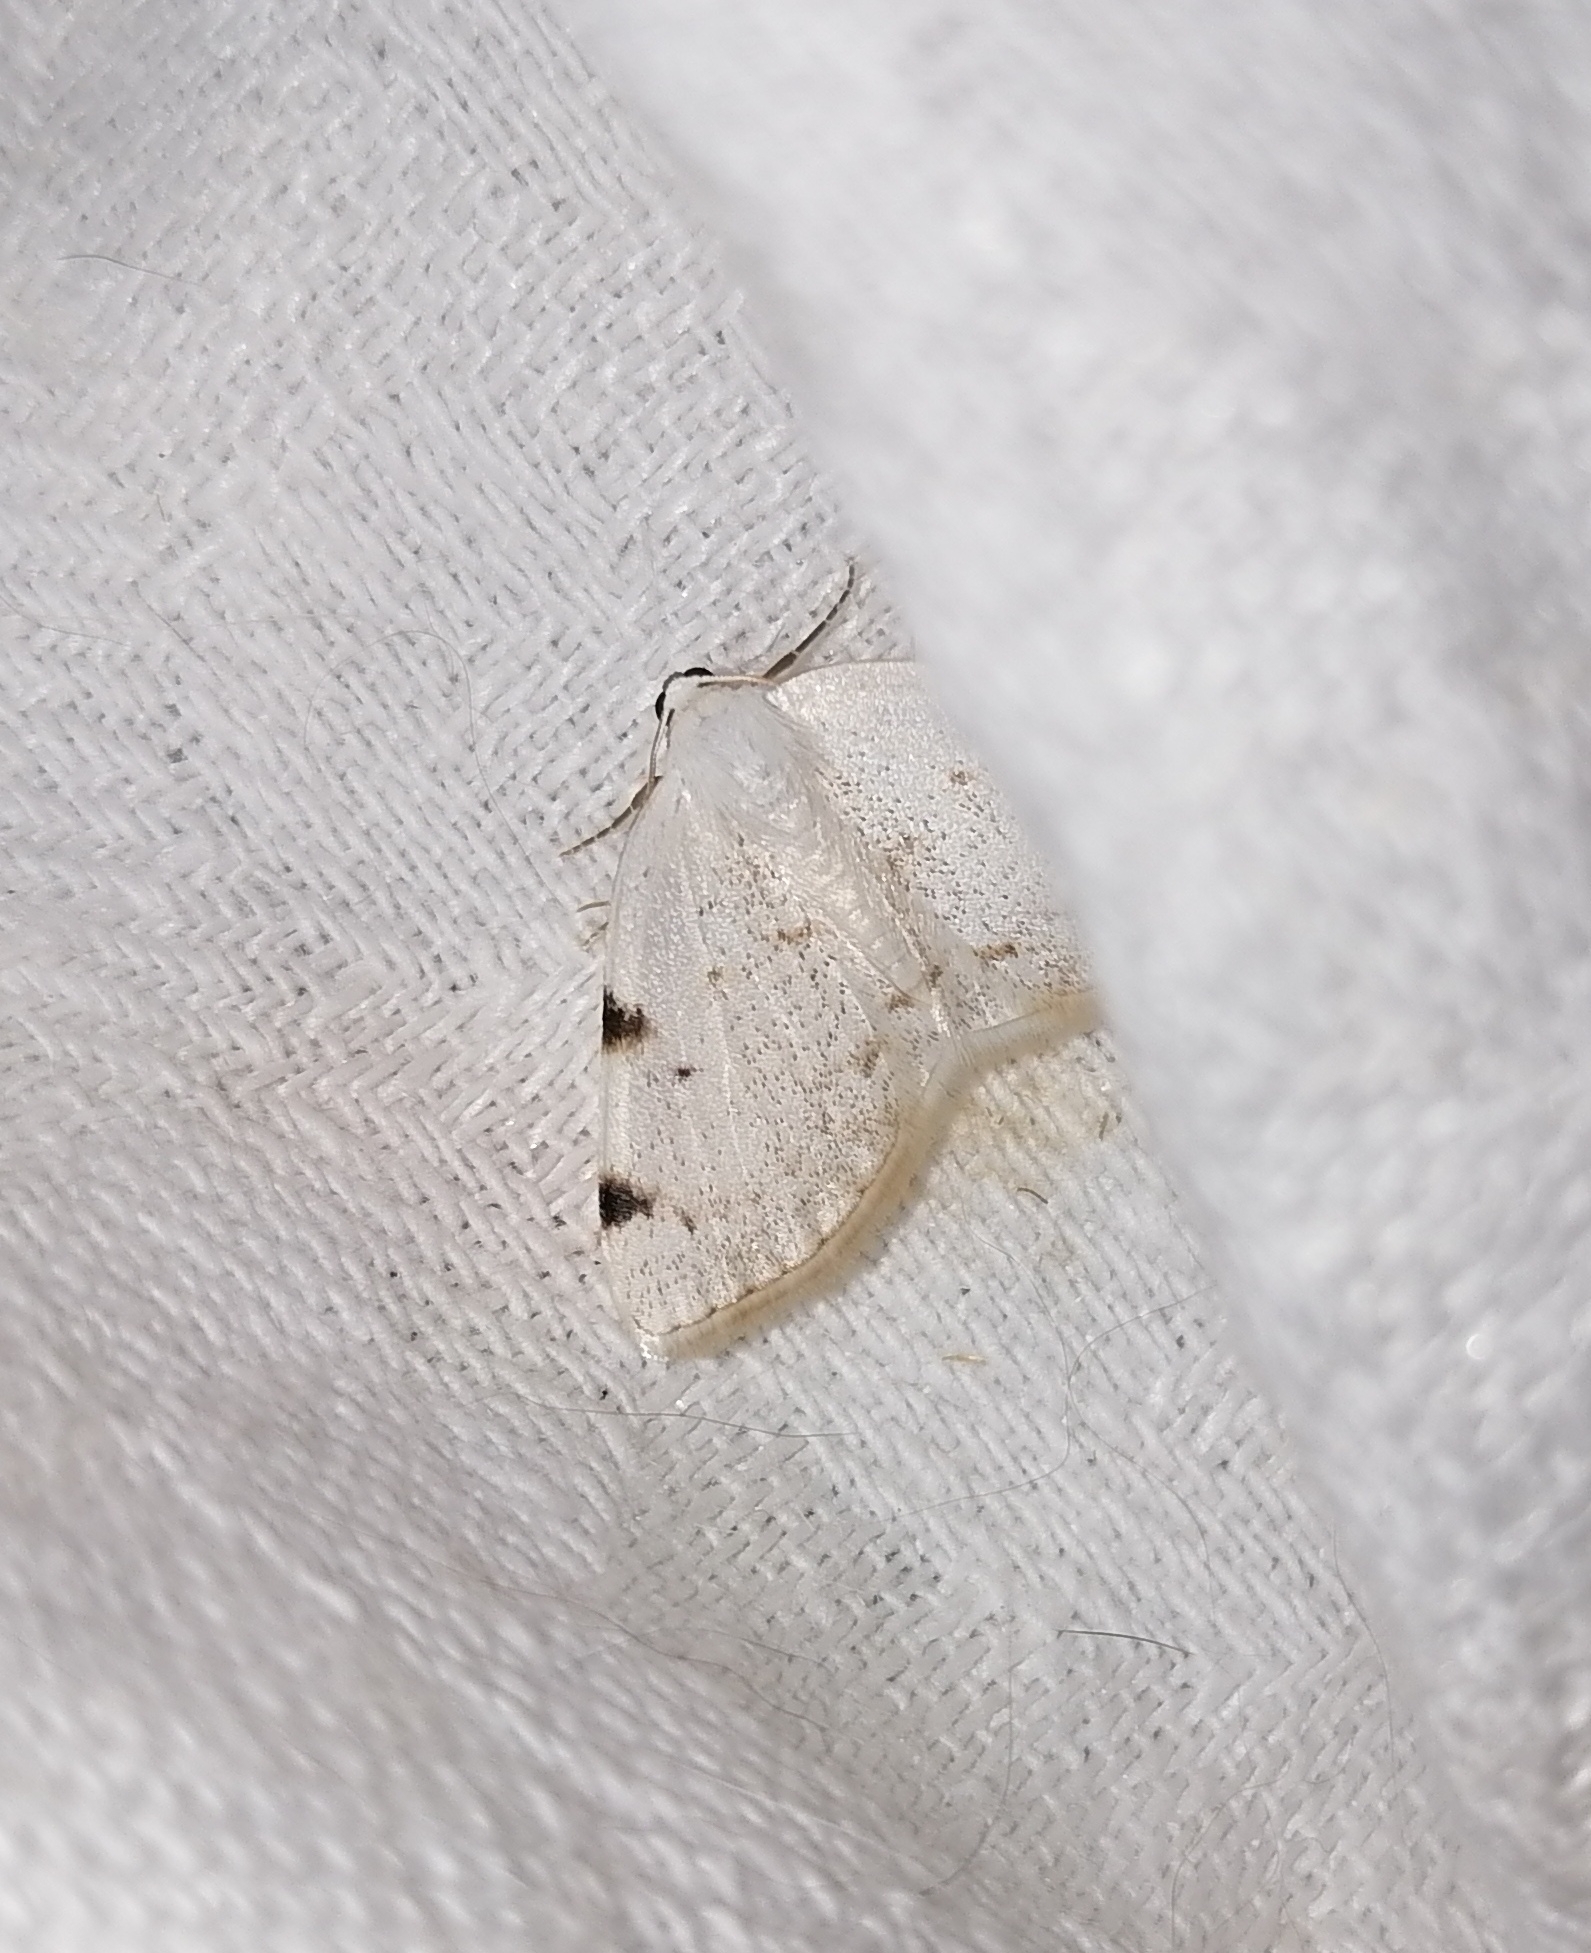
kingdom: Animalia
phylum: Arthropoda
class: Insecta
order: Lepidoptera
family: Geometridae
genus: Lomographa
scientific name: Lomographa bimaculata
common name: White-pinion spotted
